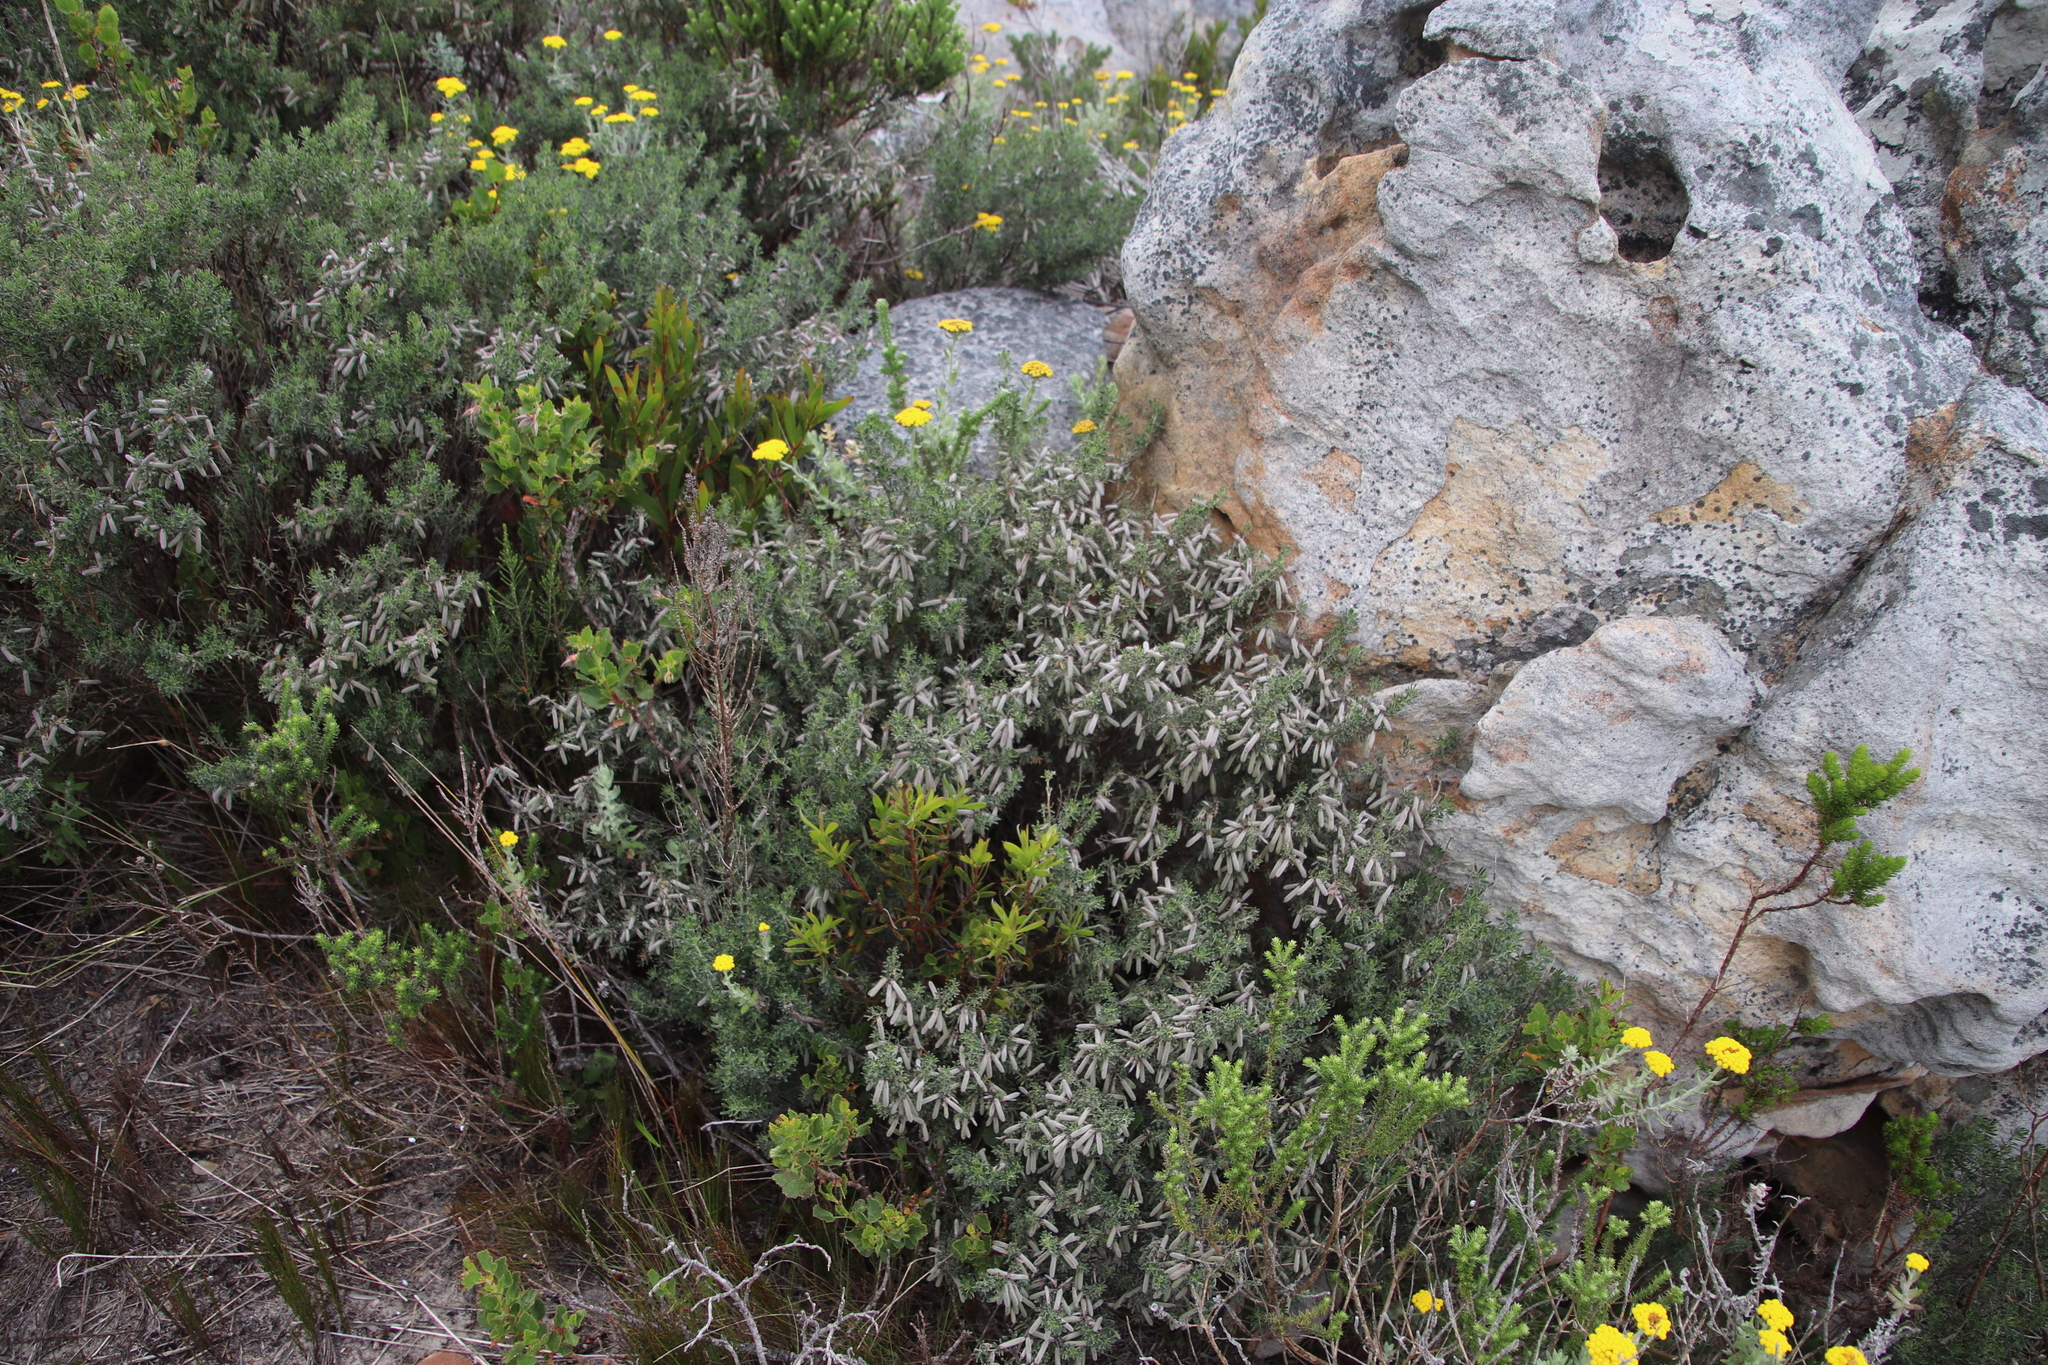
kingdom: Plantae
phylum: Tracheophyta
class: Magnoliopsida
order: Fabales
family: Fabaceae
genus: Indigofera
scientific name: Indigofera brachystachya
